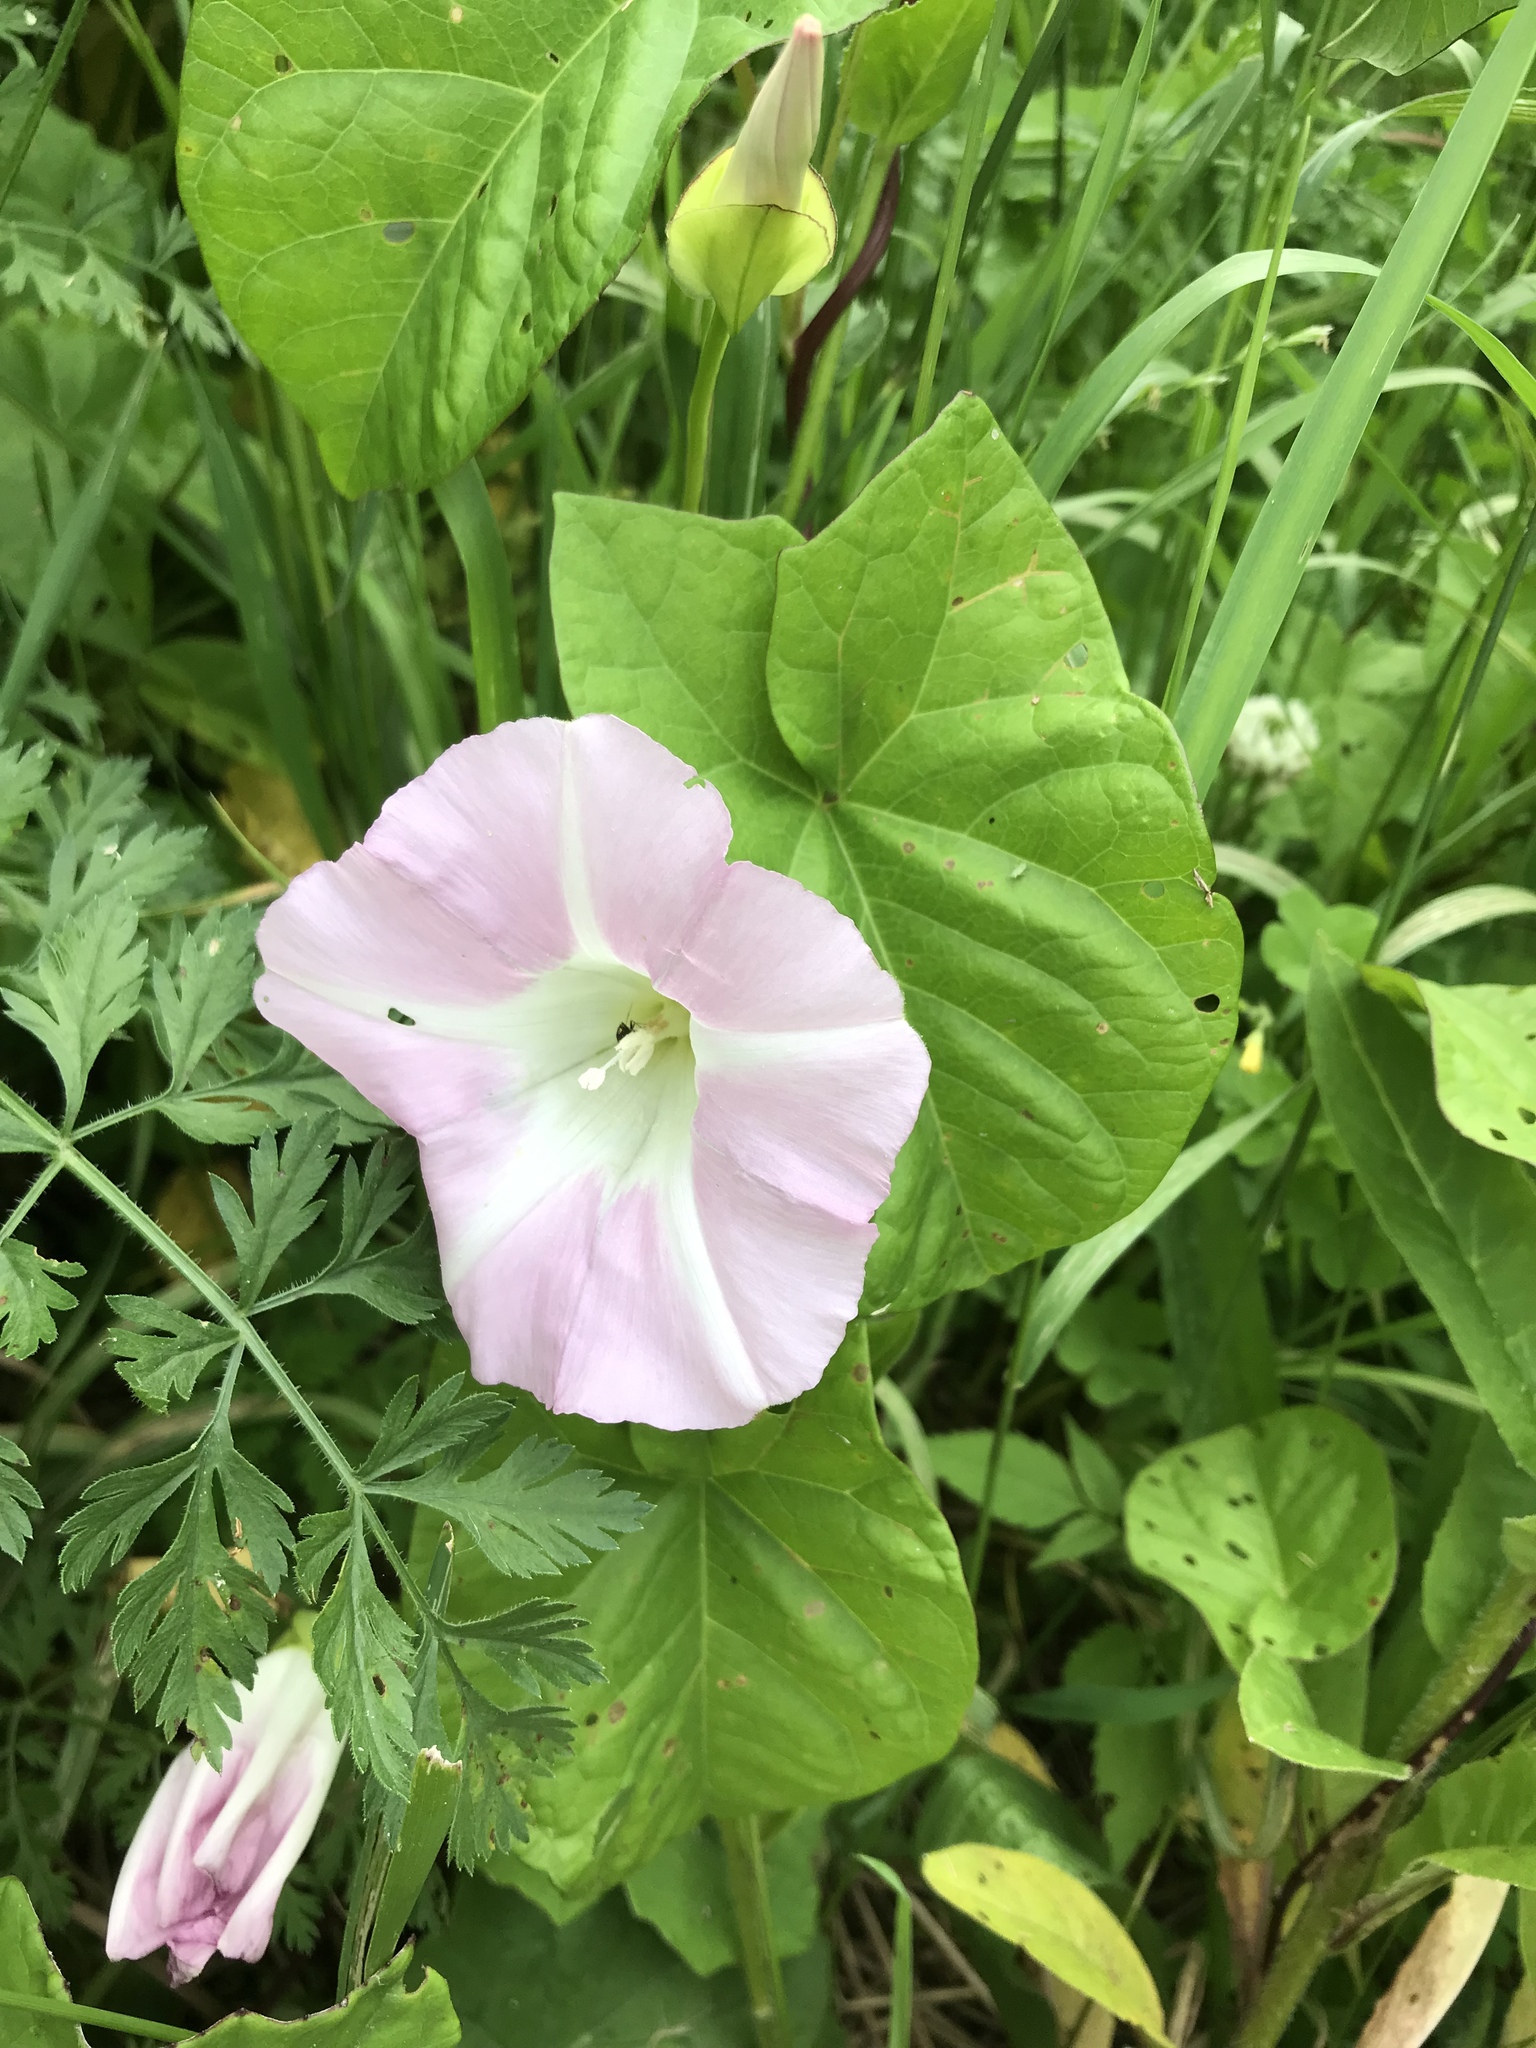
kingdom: Plantae
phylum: Tracheophyta
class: Magnoliopsida
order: Solanales
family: Convolvulaceae
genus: Calystegia
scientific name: Calystegia sepium
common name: Hedge bindweed
